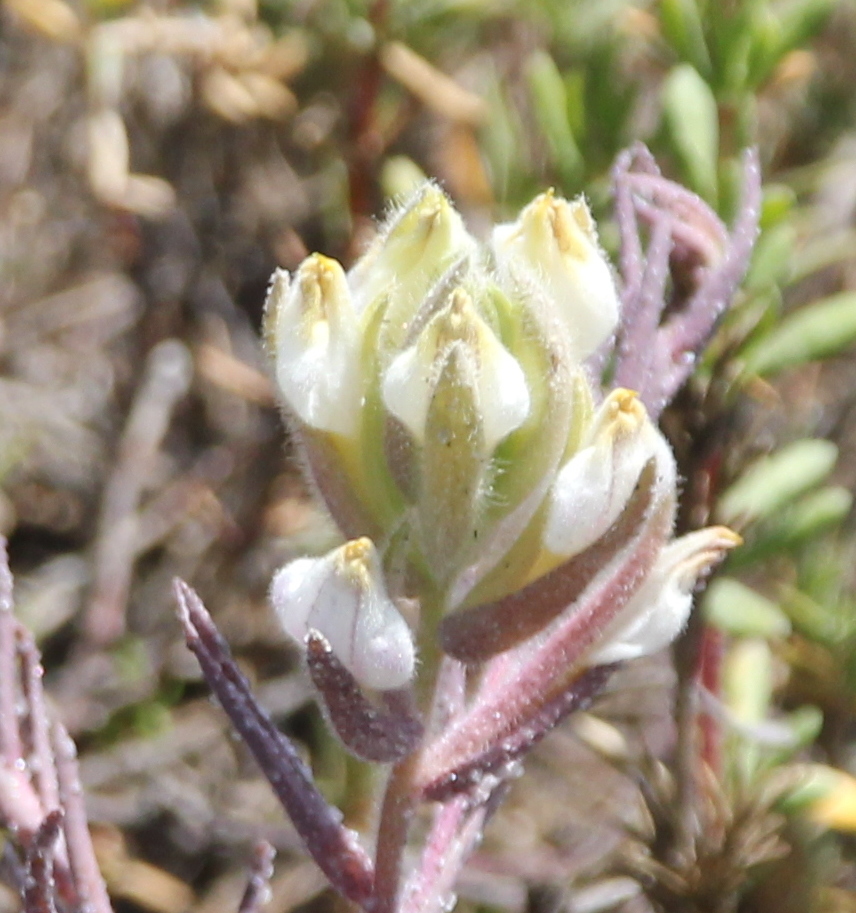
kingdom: Plantae
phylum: Tracheophyta
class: Magnoliopsida
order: Lamiales
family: Orobanchaceae
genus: Chloropyron
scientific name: Chloropyron maritimum
